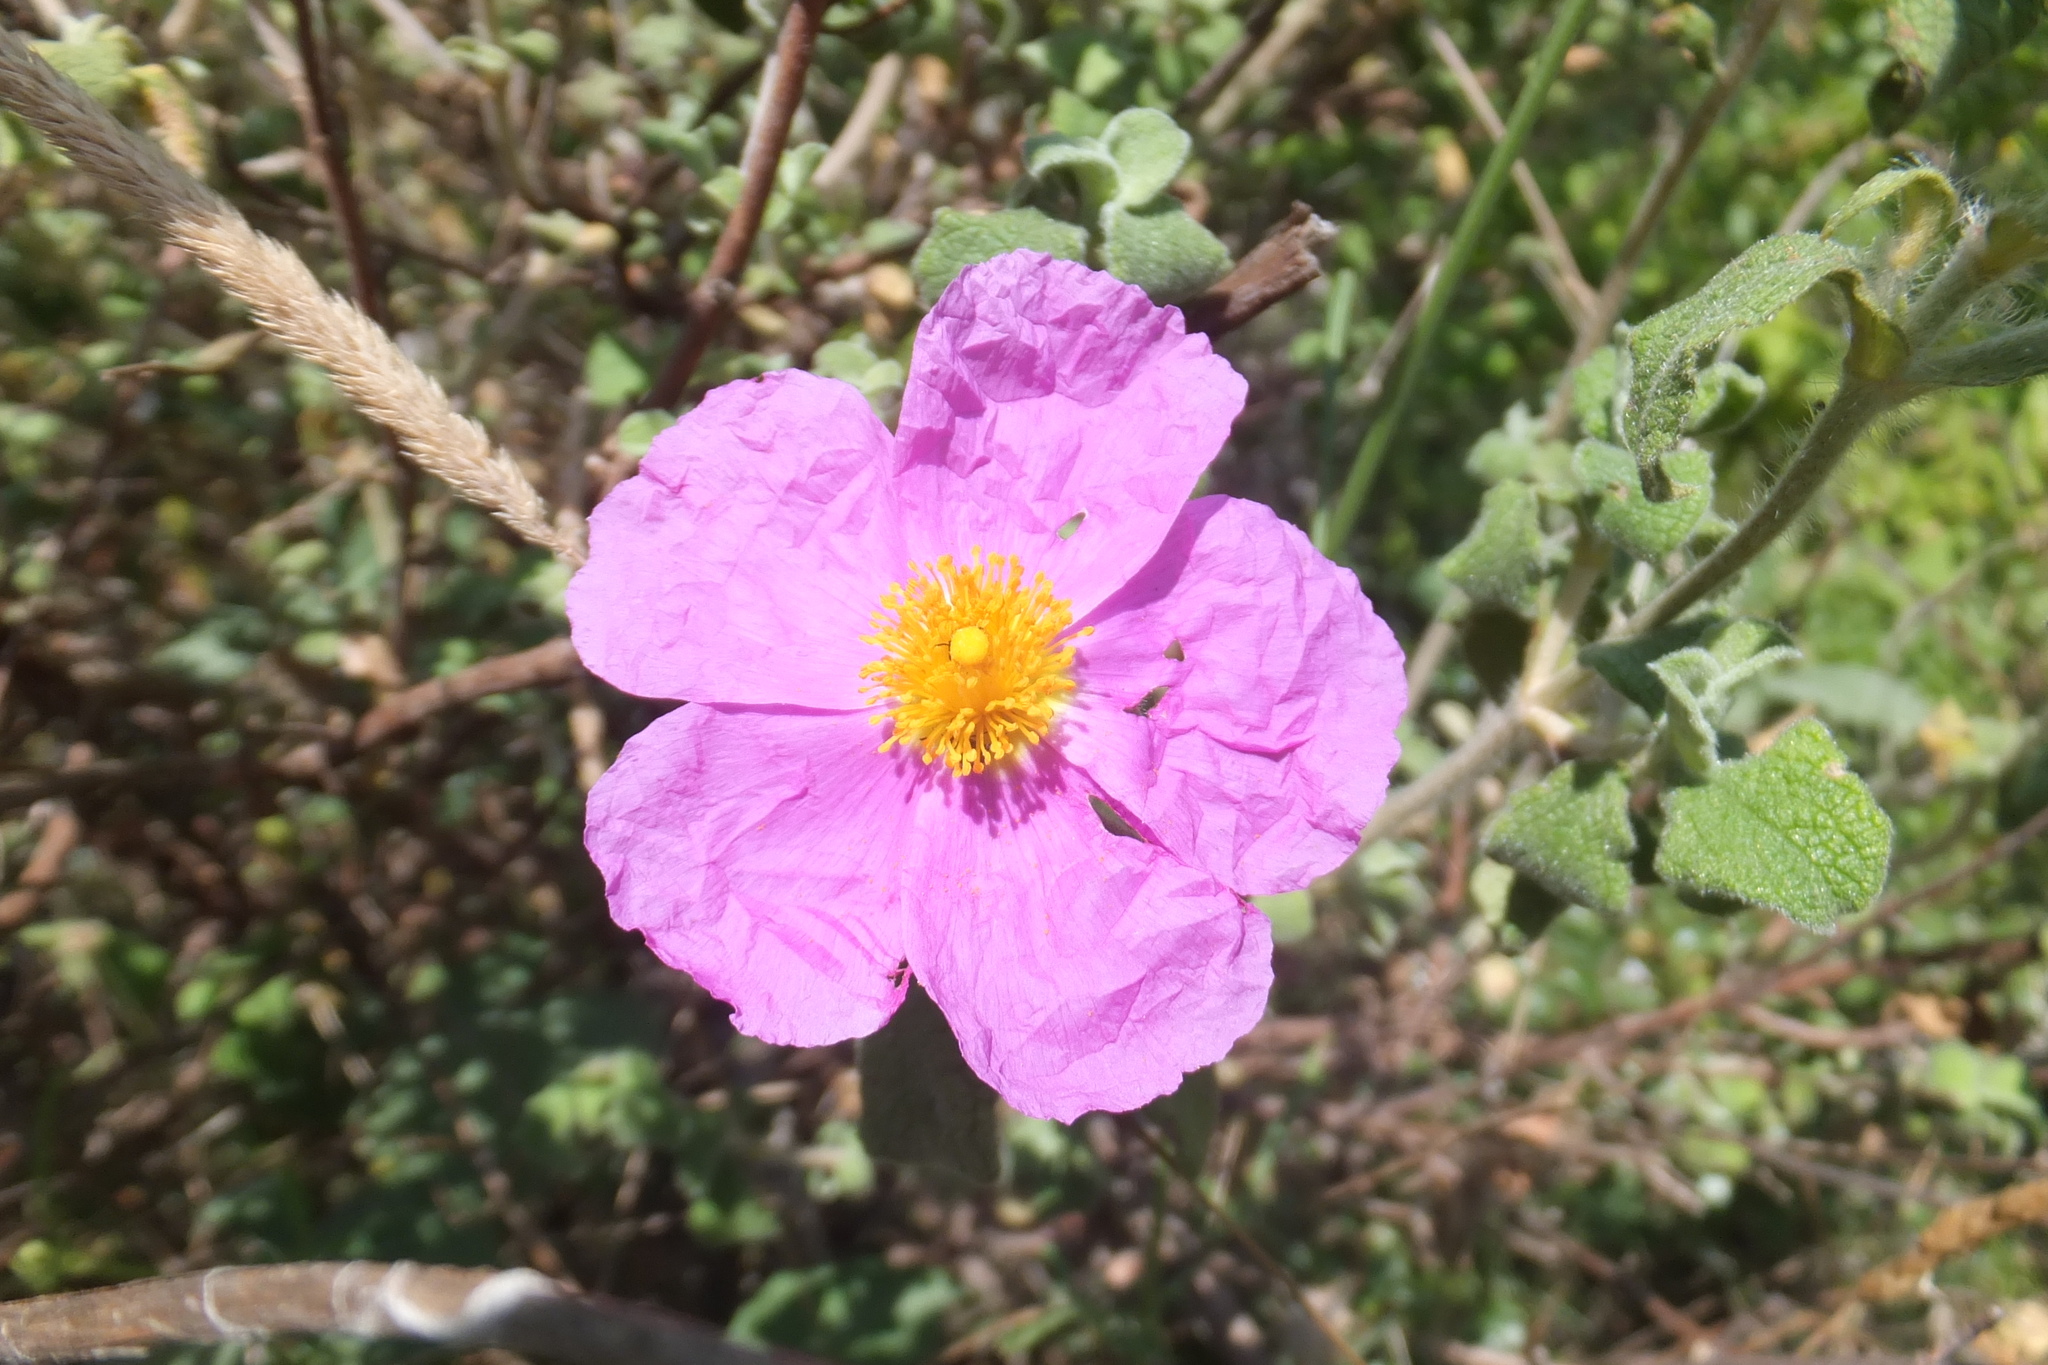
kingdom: Plantae
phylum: Tracheophyta
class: Magnoliopsida
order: Malvales
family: Cistaceae
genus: Cistus
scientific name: Cistus creticus
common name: Cretan rockrose
